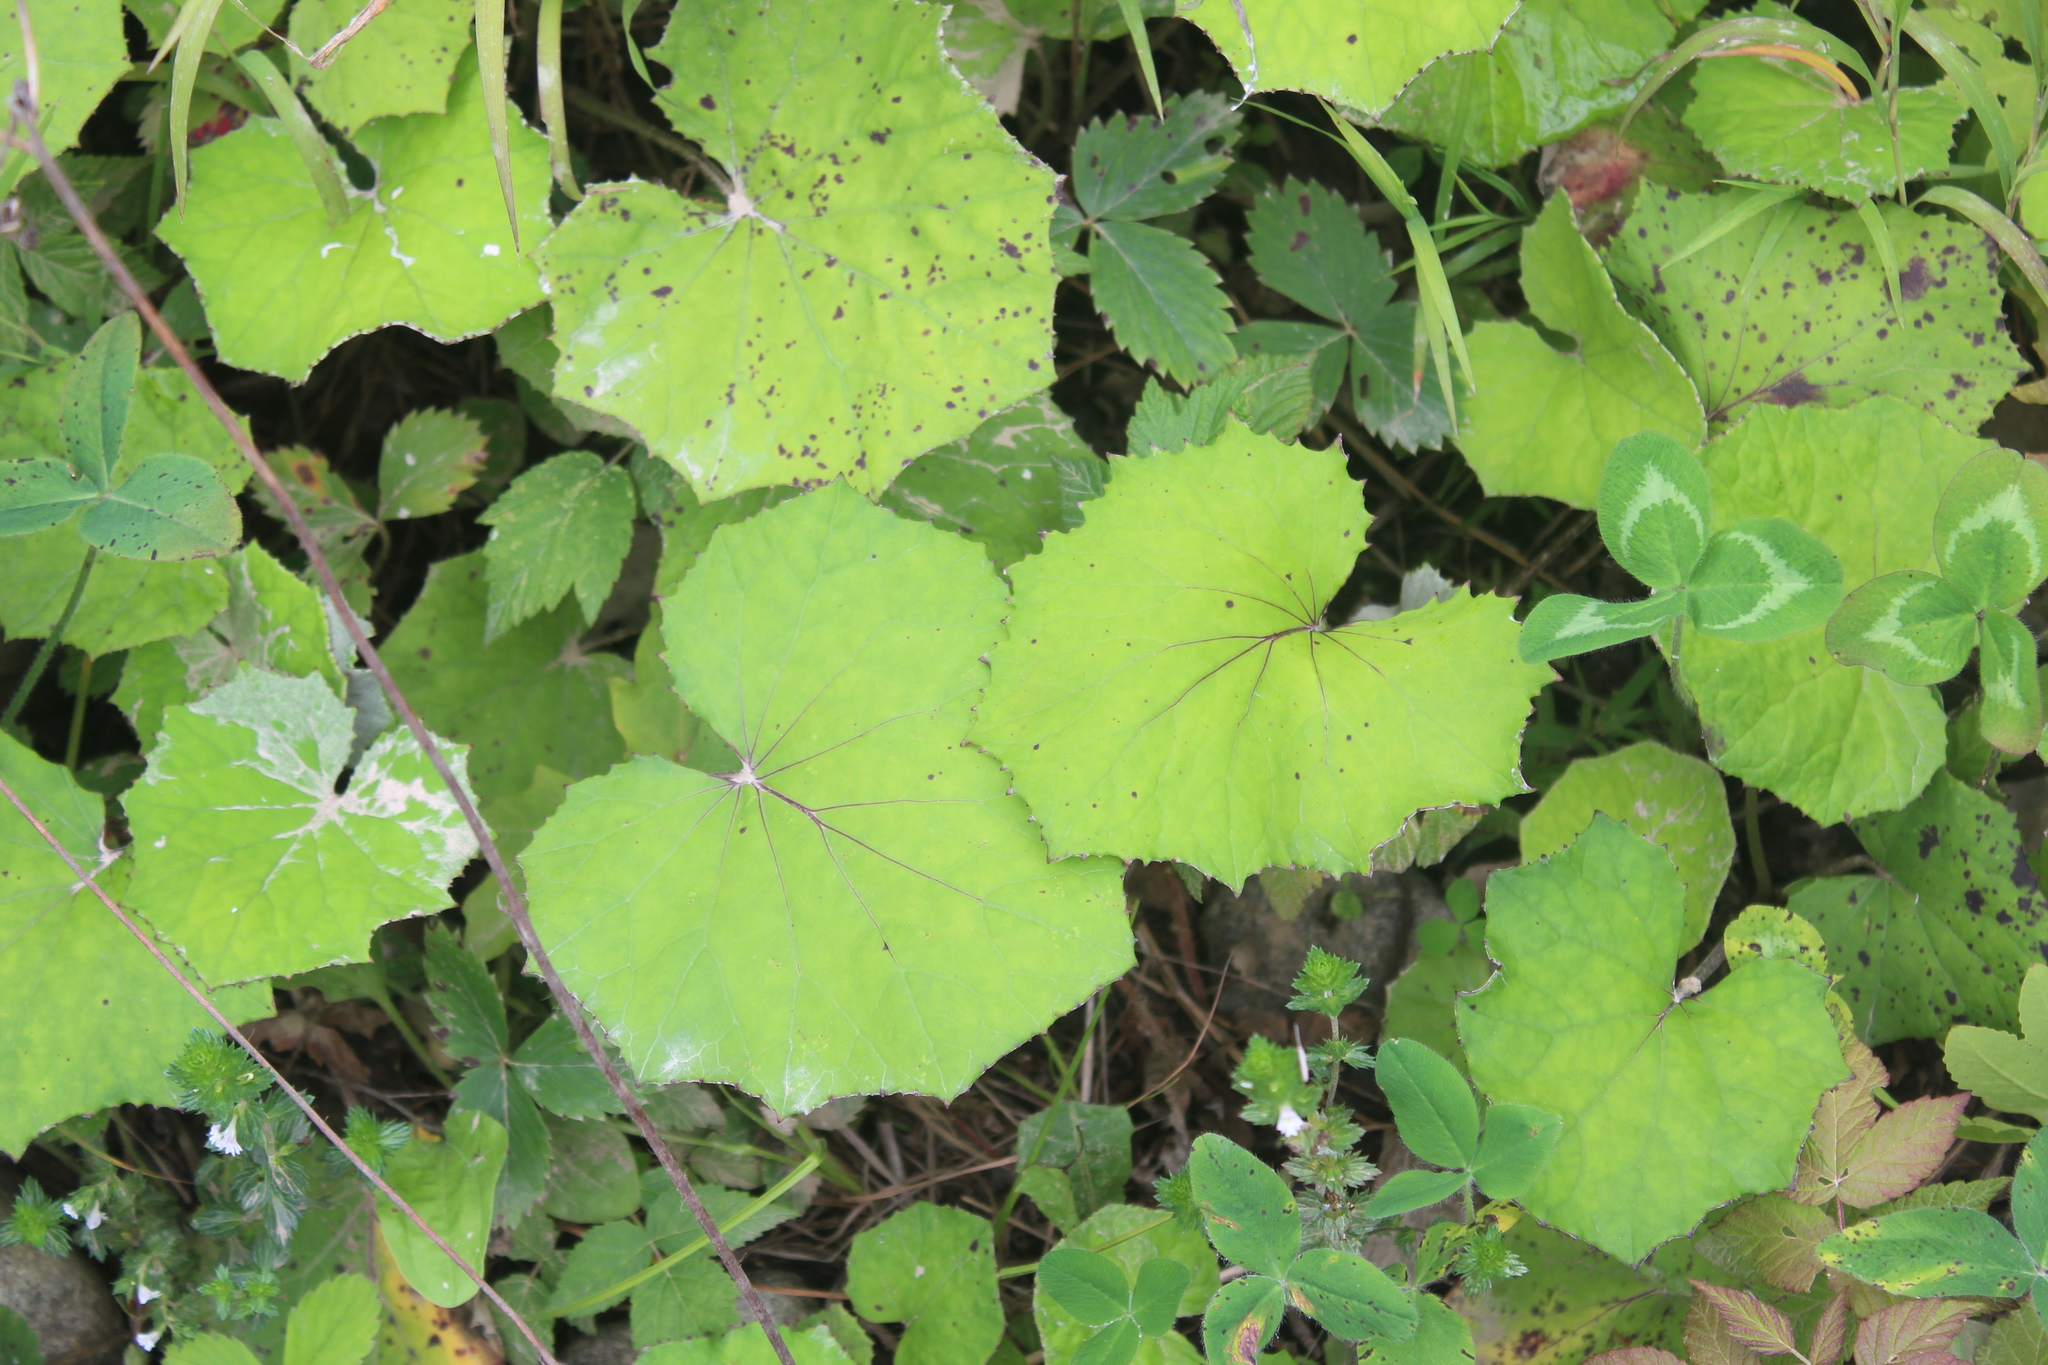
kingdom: Plantae
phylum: Tracheophyta
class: Magnoliopsida
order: Asterales
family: Asteraceae
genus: Tussilago
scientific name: Tussilago farfara
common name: Coltsfoot
